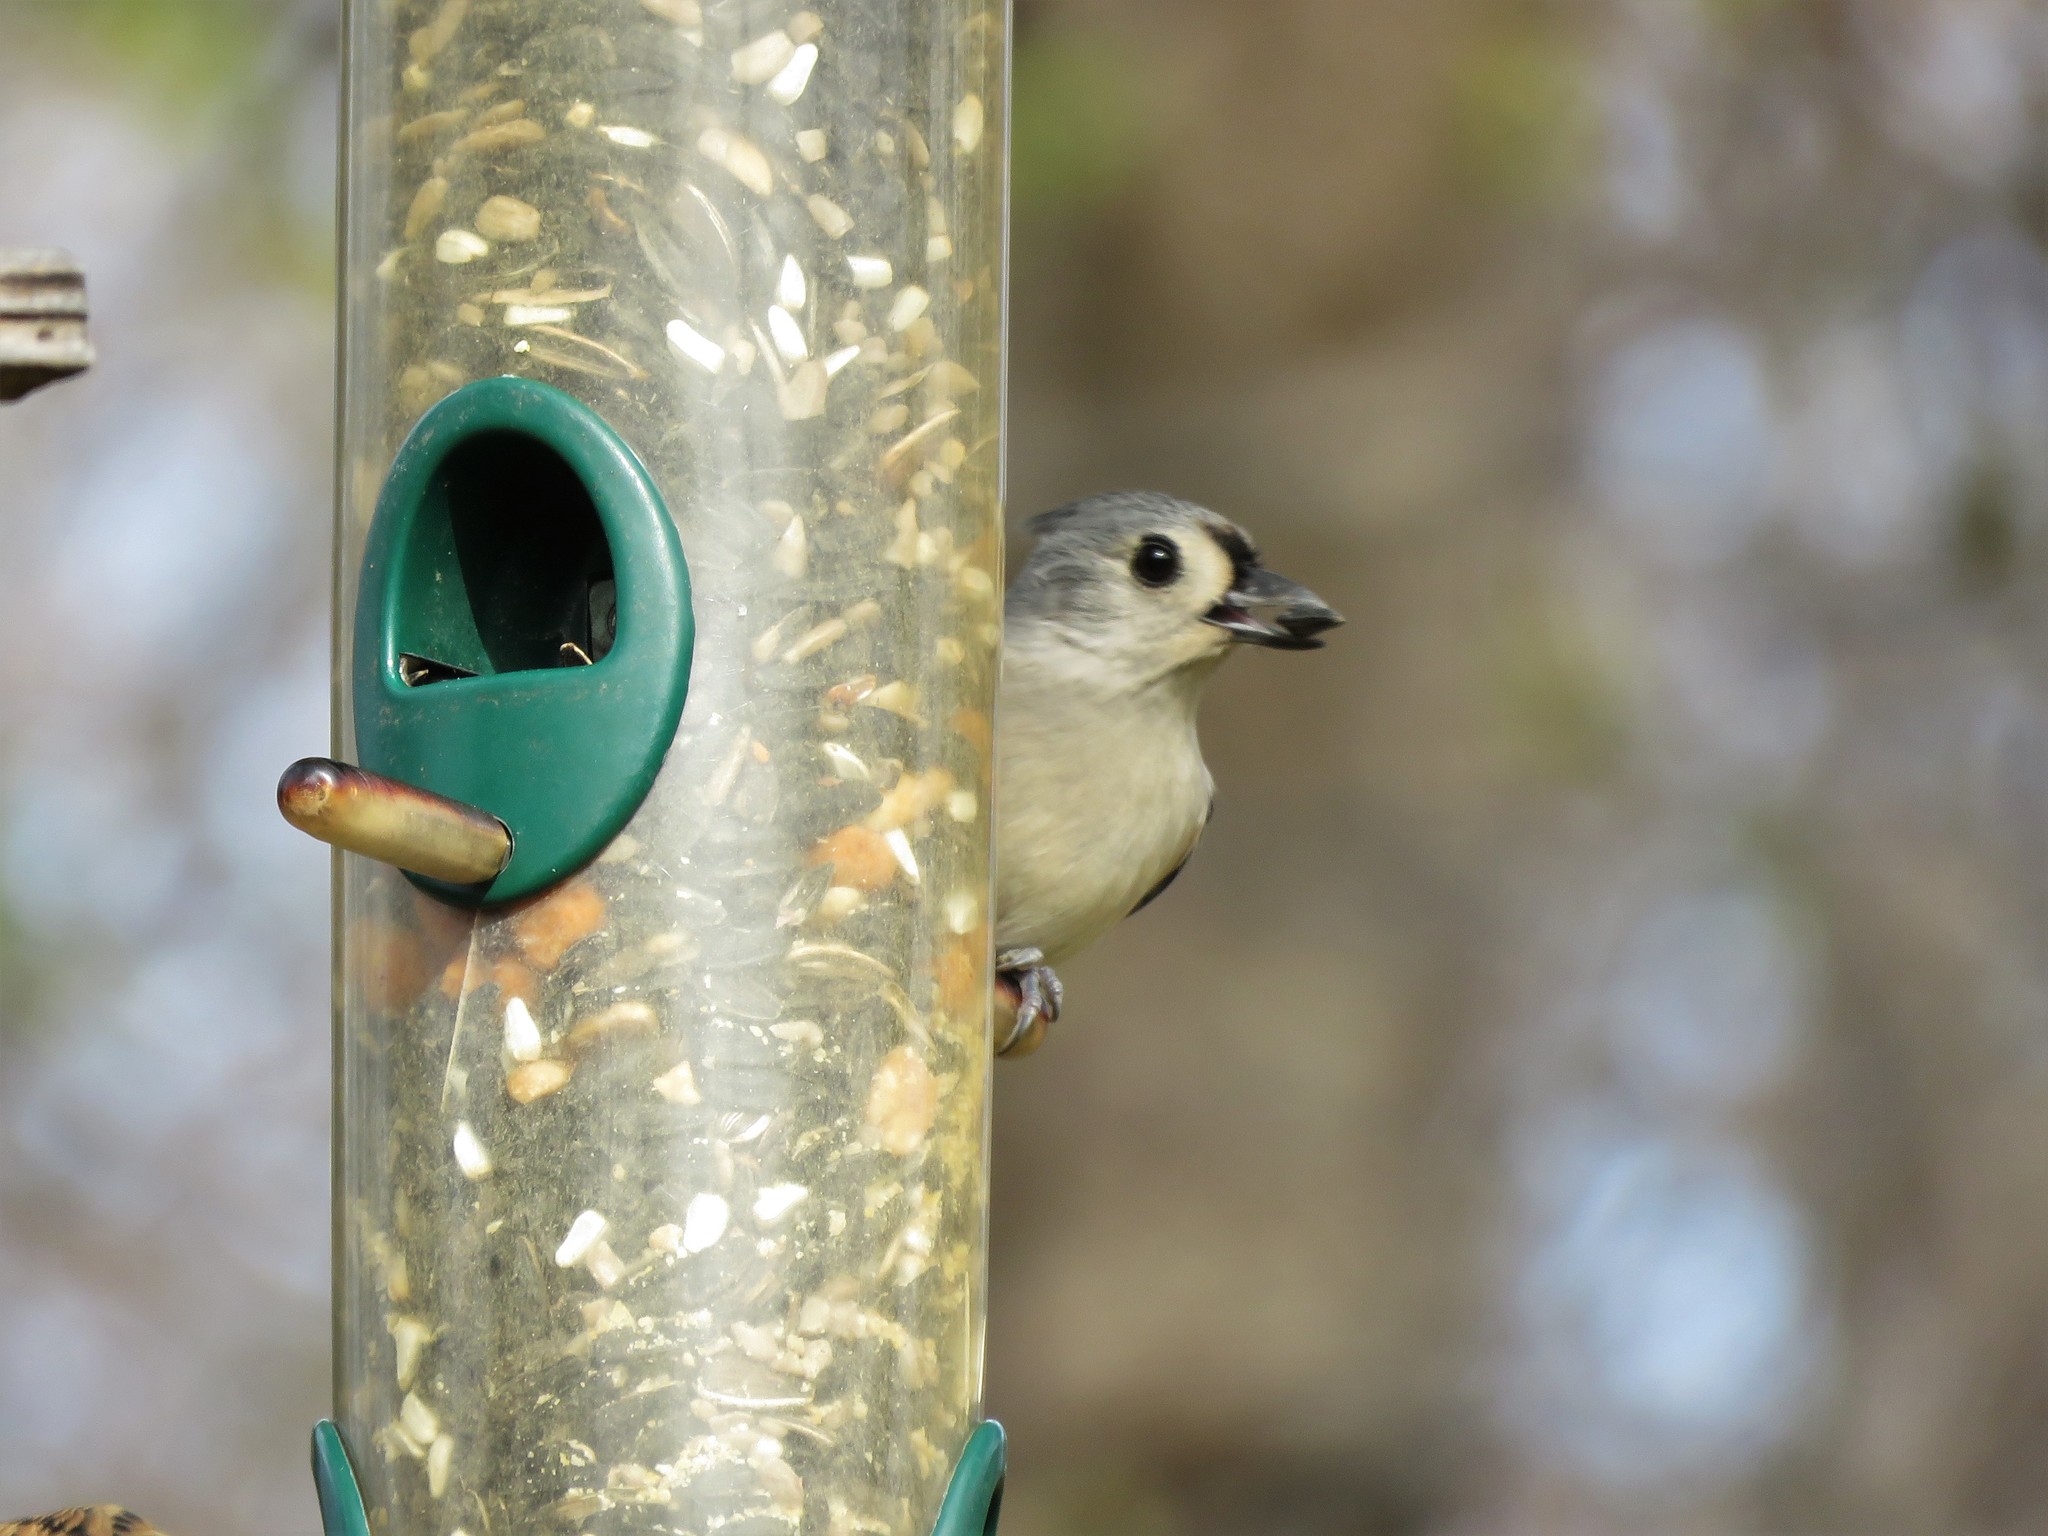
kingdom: Animalia
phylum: Chordata
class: Aves
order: Passeriformes
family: Paridae
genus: Baeolophus
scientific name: Baeolophus bicolor
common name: Tufted titmouse
